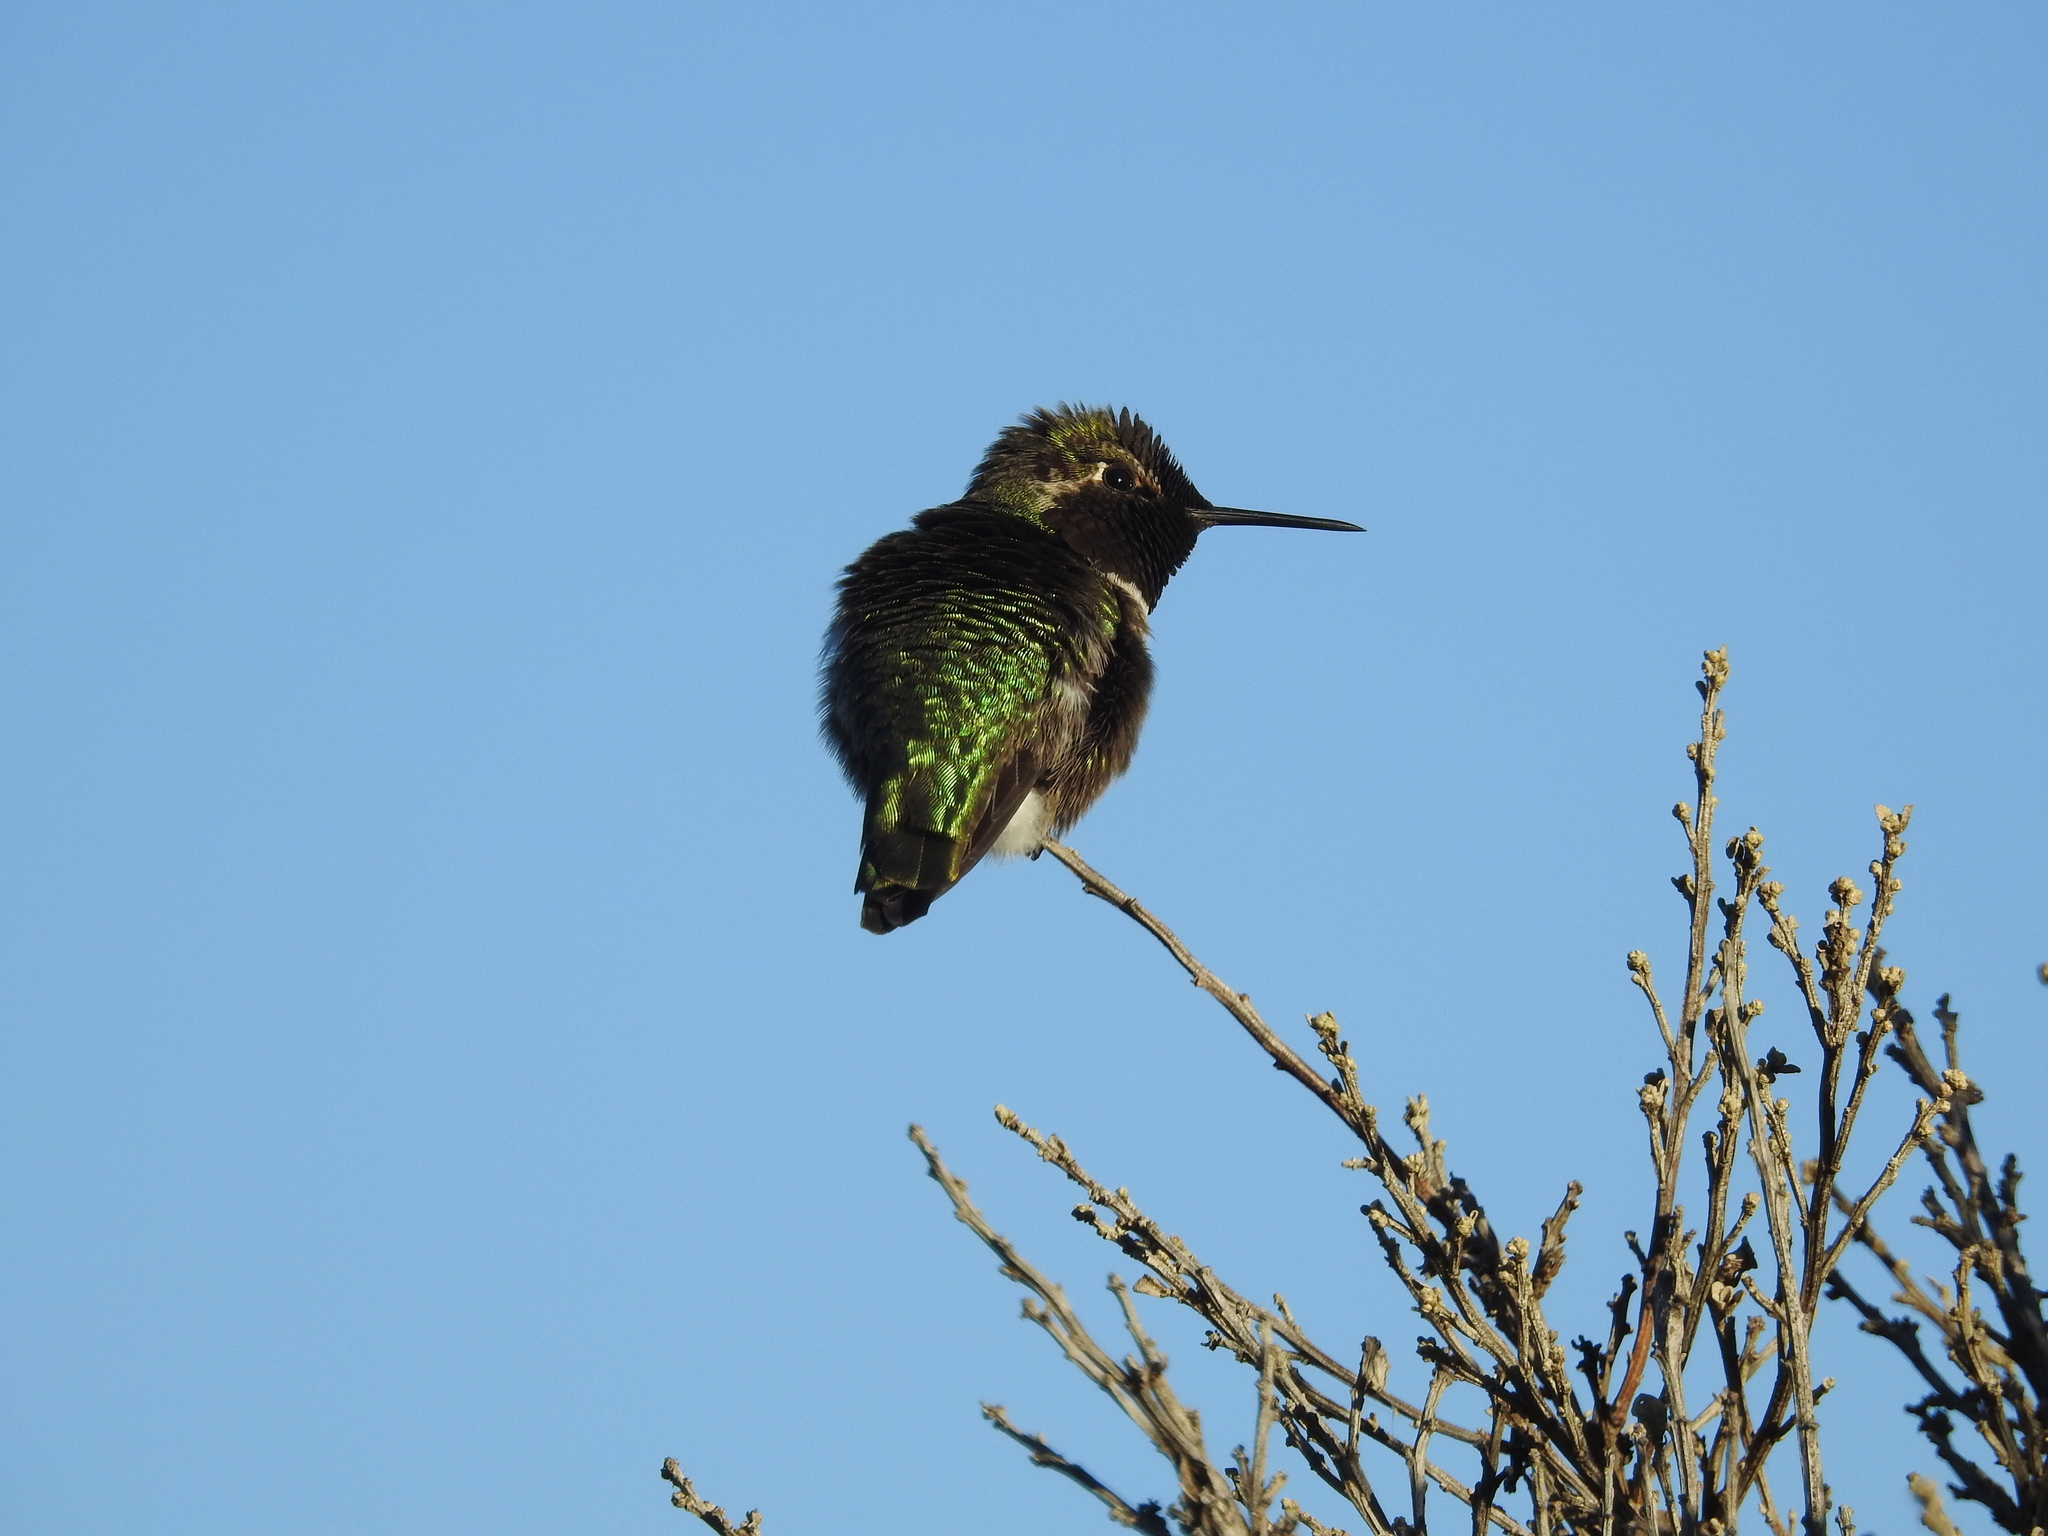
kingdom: Animalia
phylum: Chordata
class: Aves
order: Apodiformes
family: Trochilidae
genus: Calypte
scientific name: Calypte anna
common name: Anna's hummingbird
